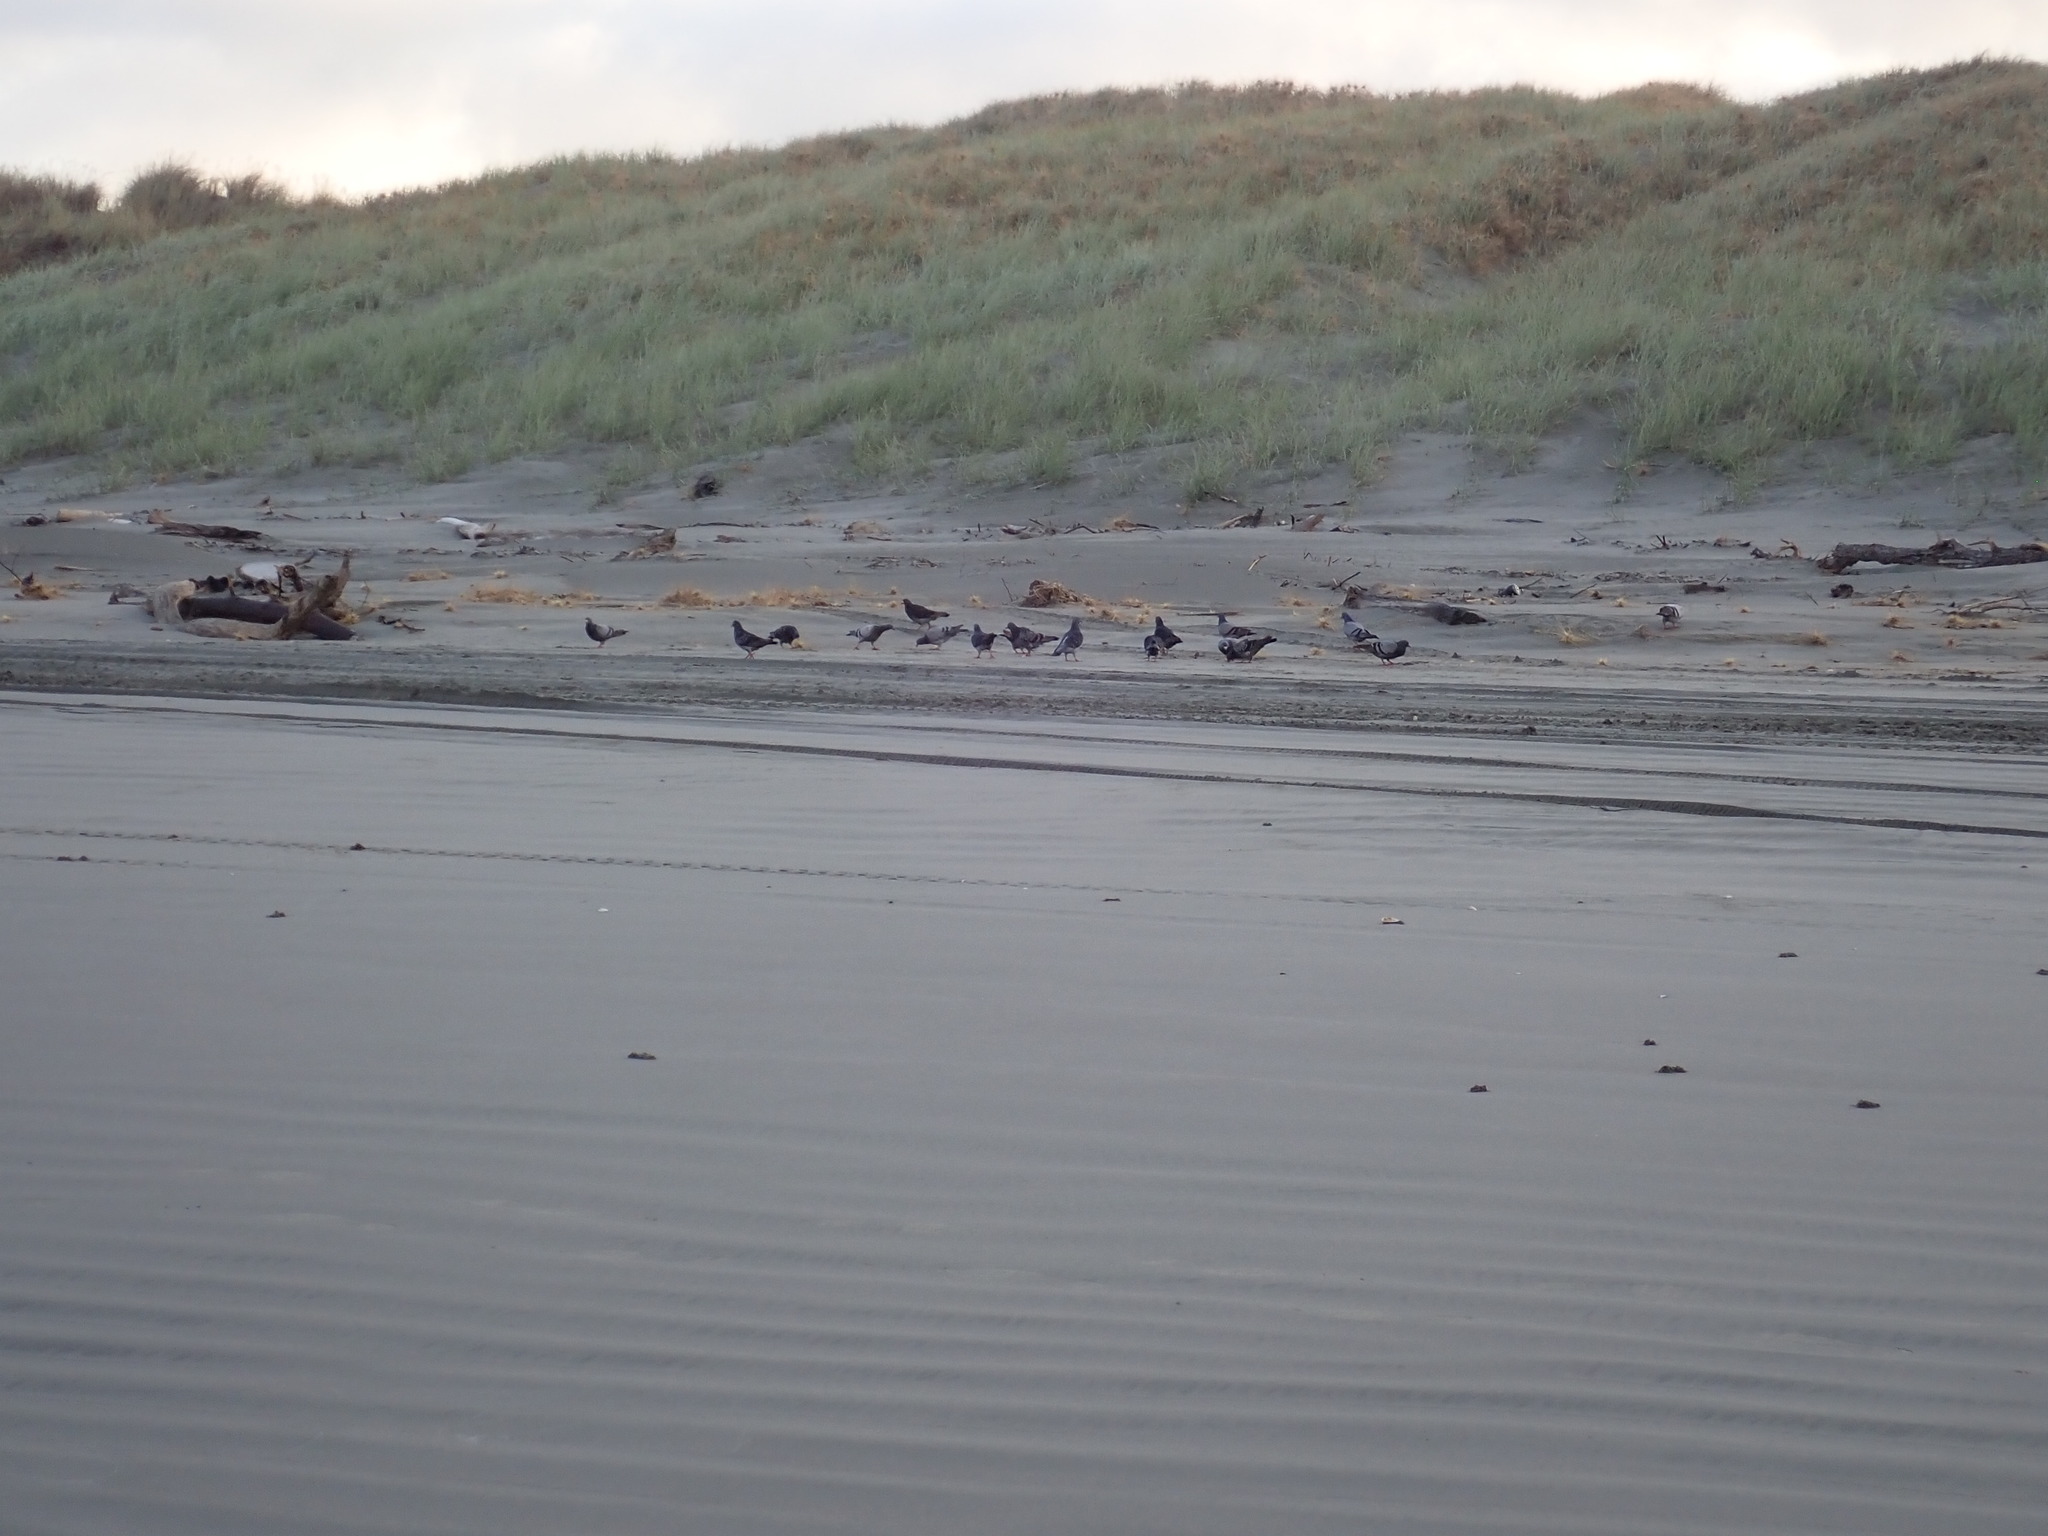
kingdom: Animalia
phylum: Chordata
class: Aves
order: Columbiformes
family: Columbidae
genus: Columba
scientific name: Columba livia
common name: Rock pigeon
